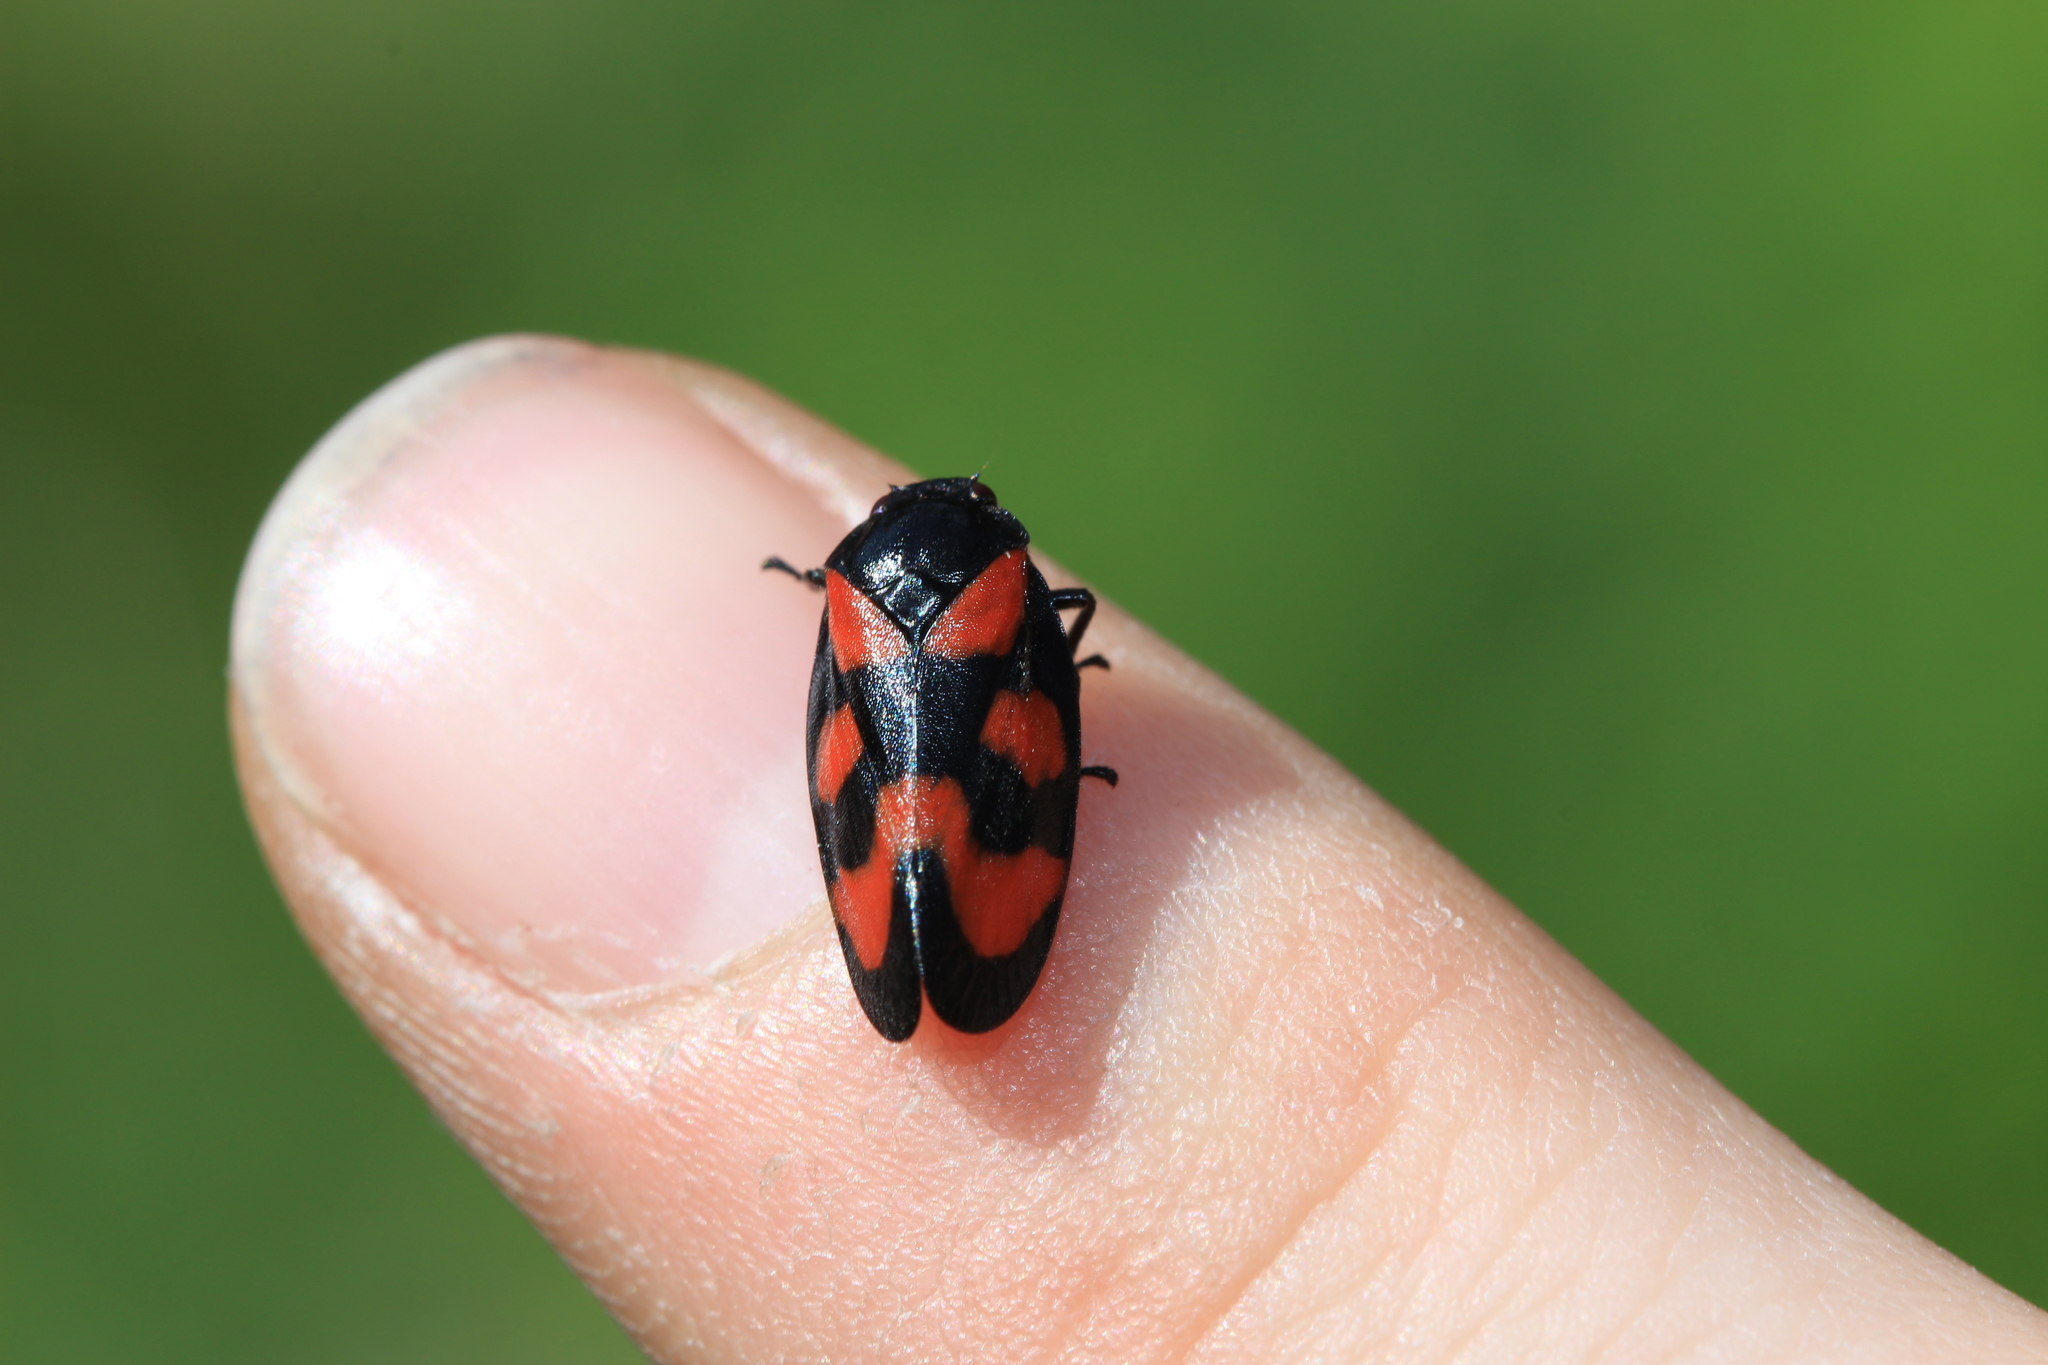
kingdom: Animalia
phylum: Arthropoda
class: Insecta
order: Hemiptera
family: Cercopidae
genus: Cercopis
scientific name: Cercopis vulnerata
